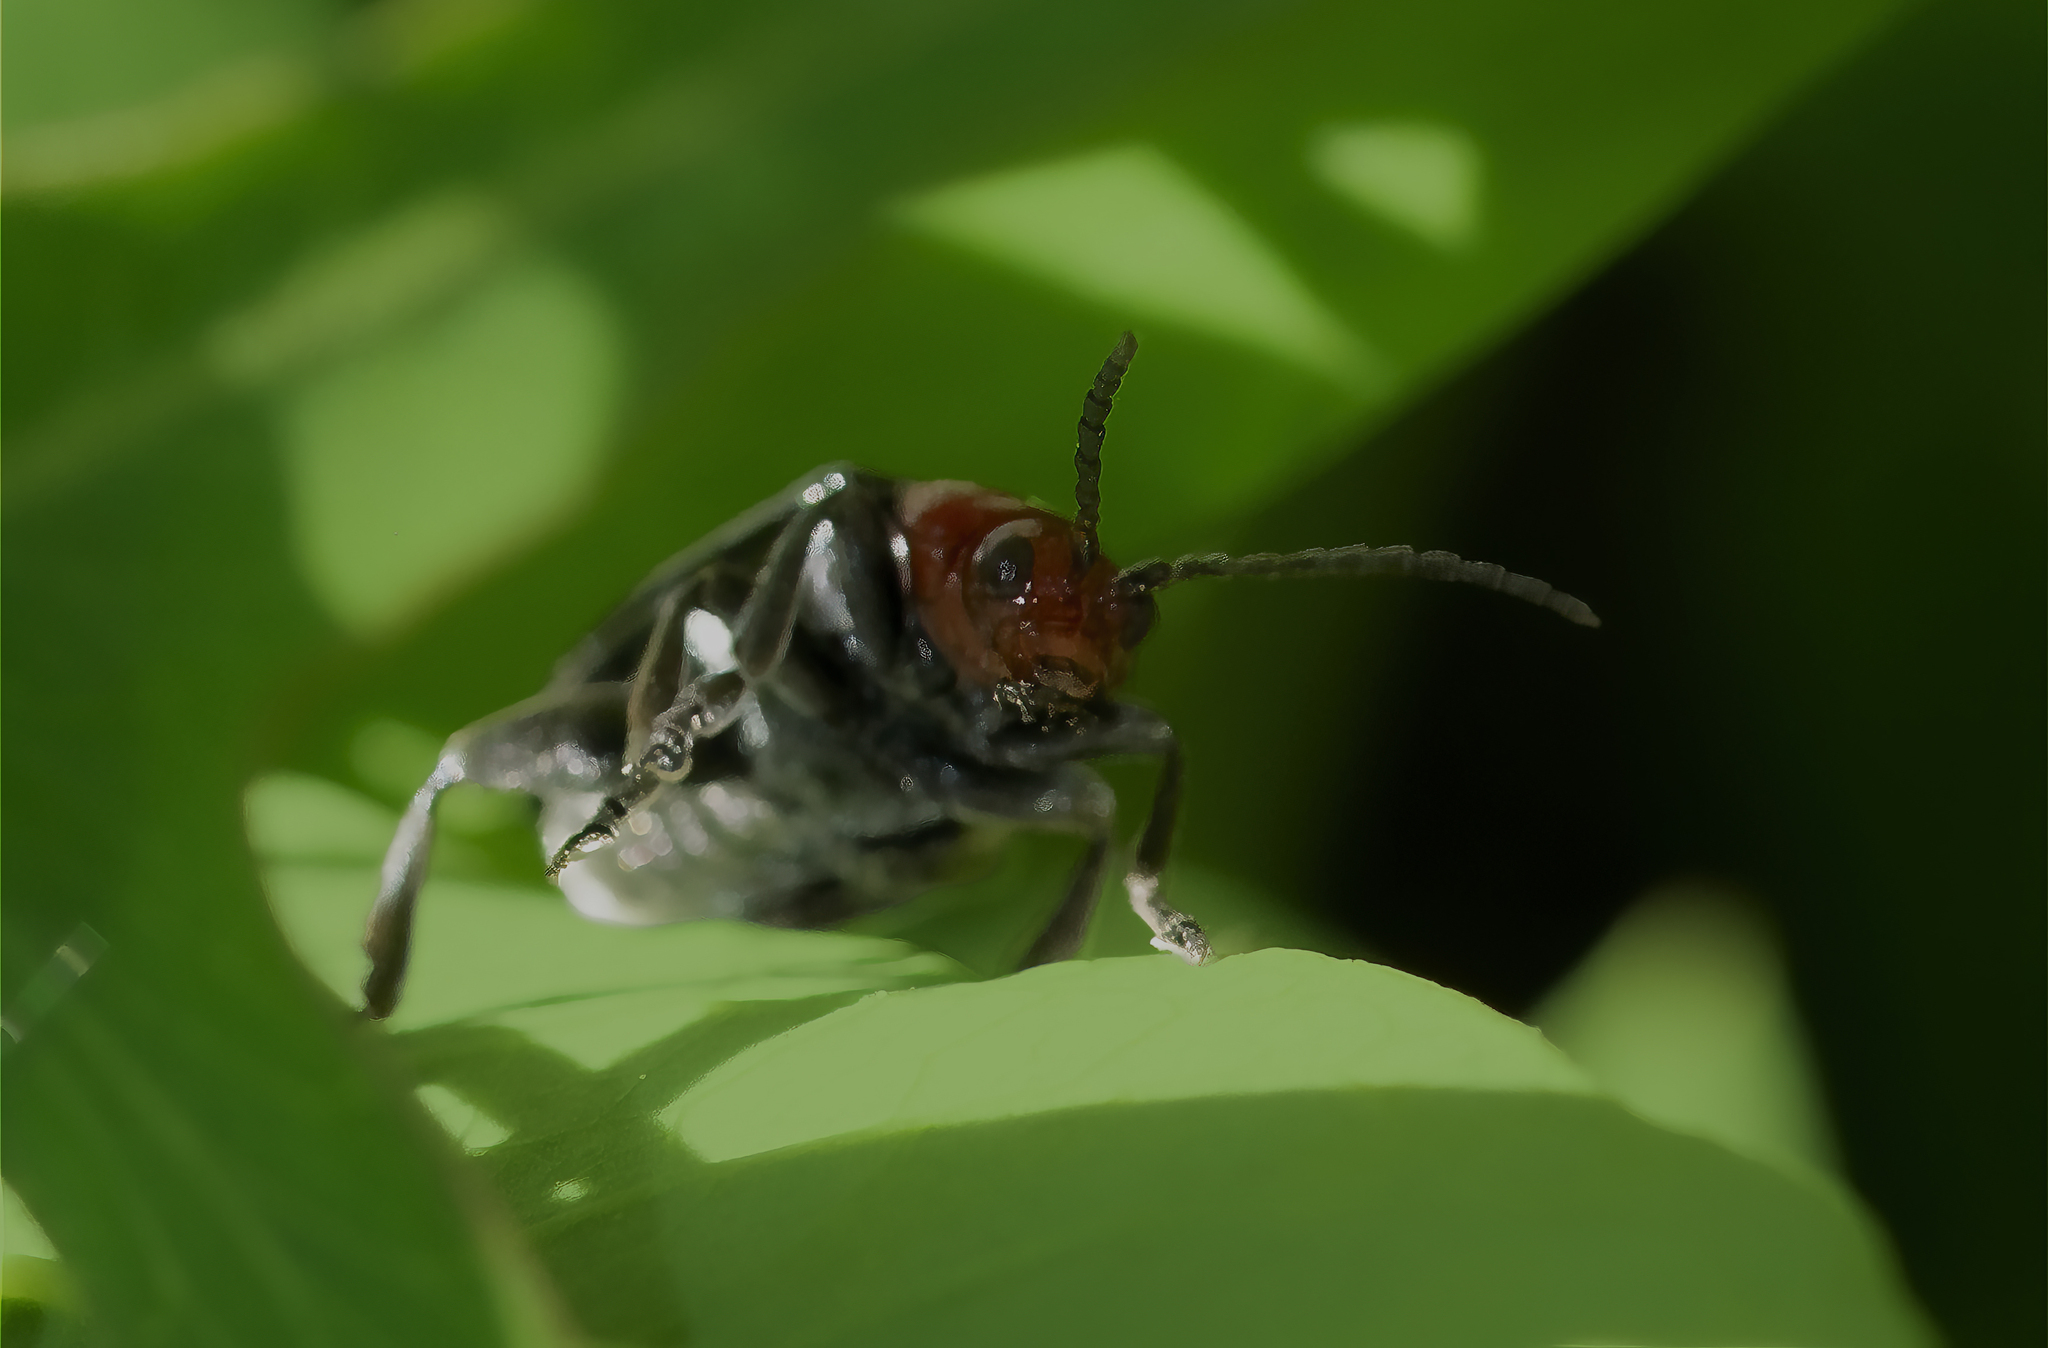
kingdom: Animalia
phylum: Arthropoda
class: Insecta
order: Coleoptera
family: Chrysomelidae
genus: Cacoscelis
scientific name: Cacoscelis
